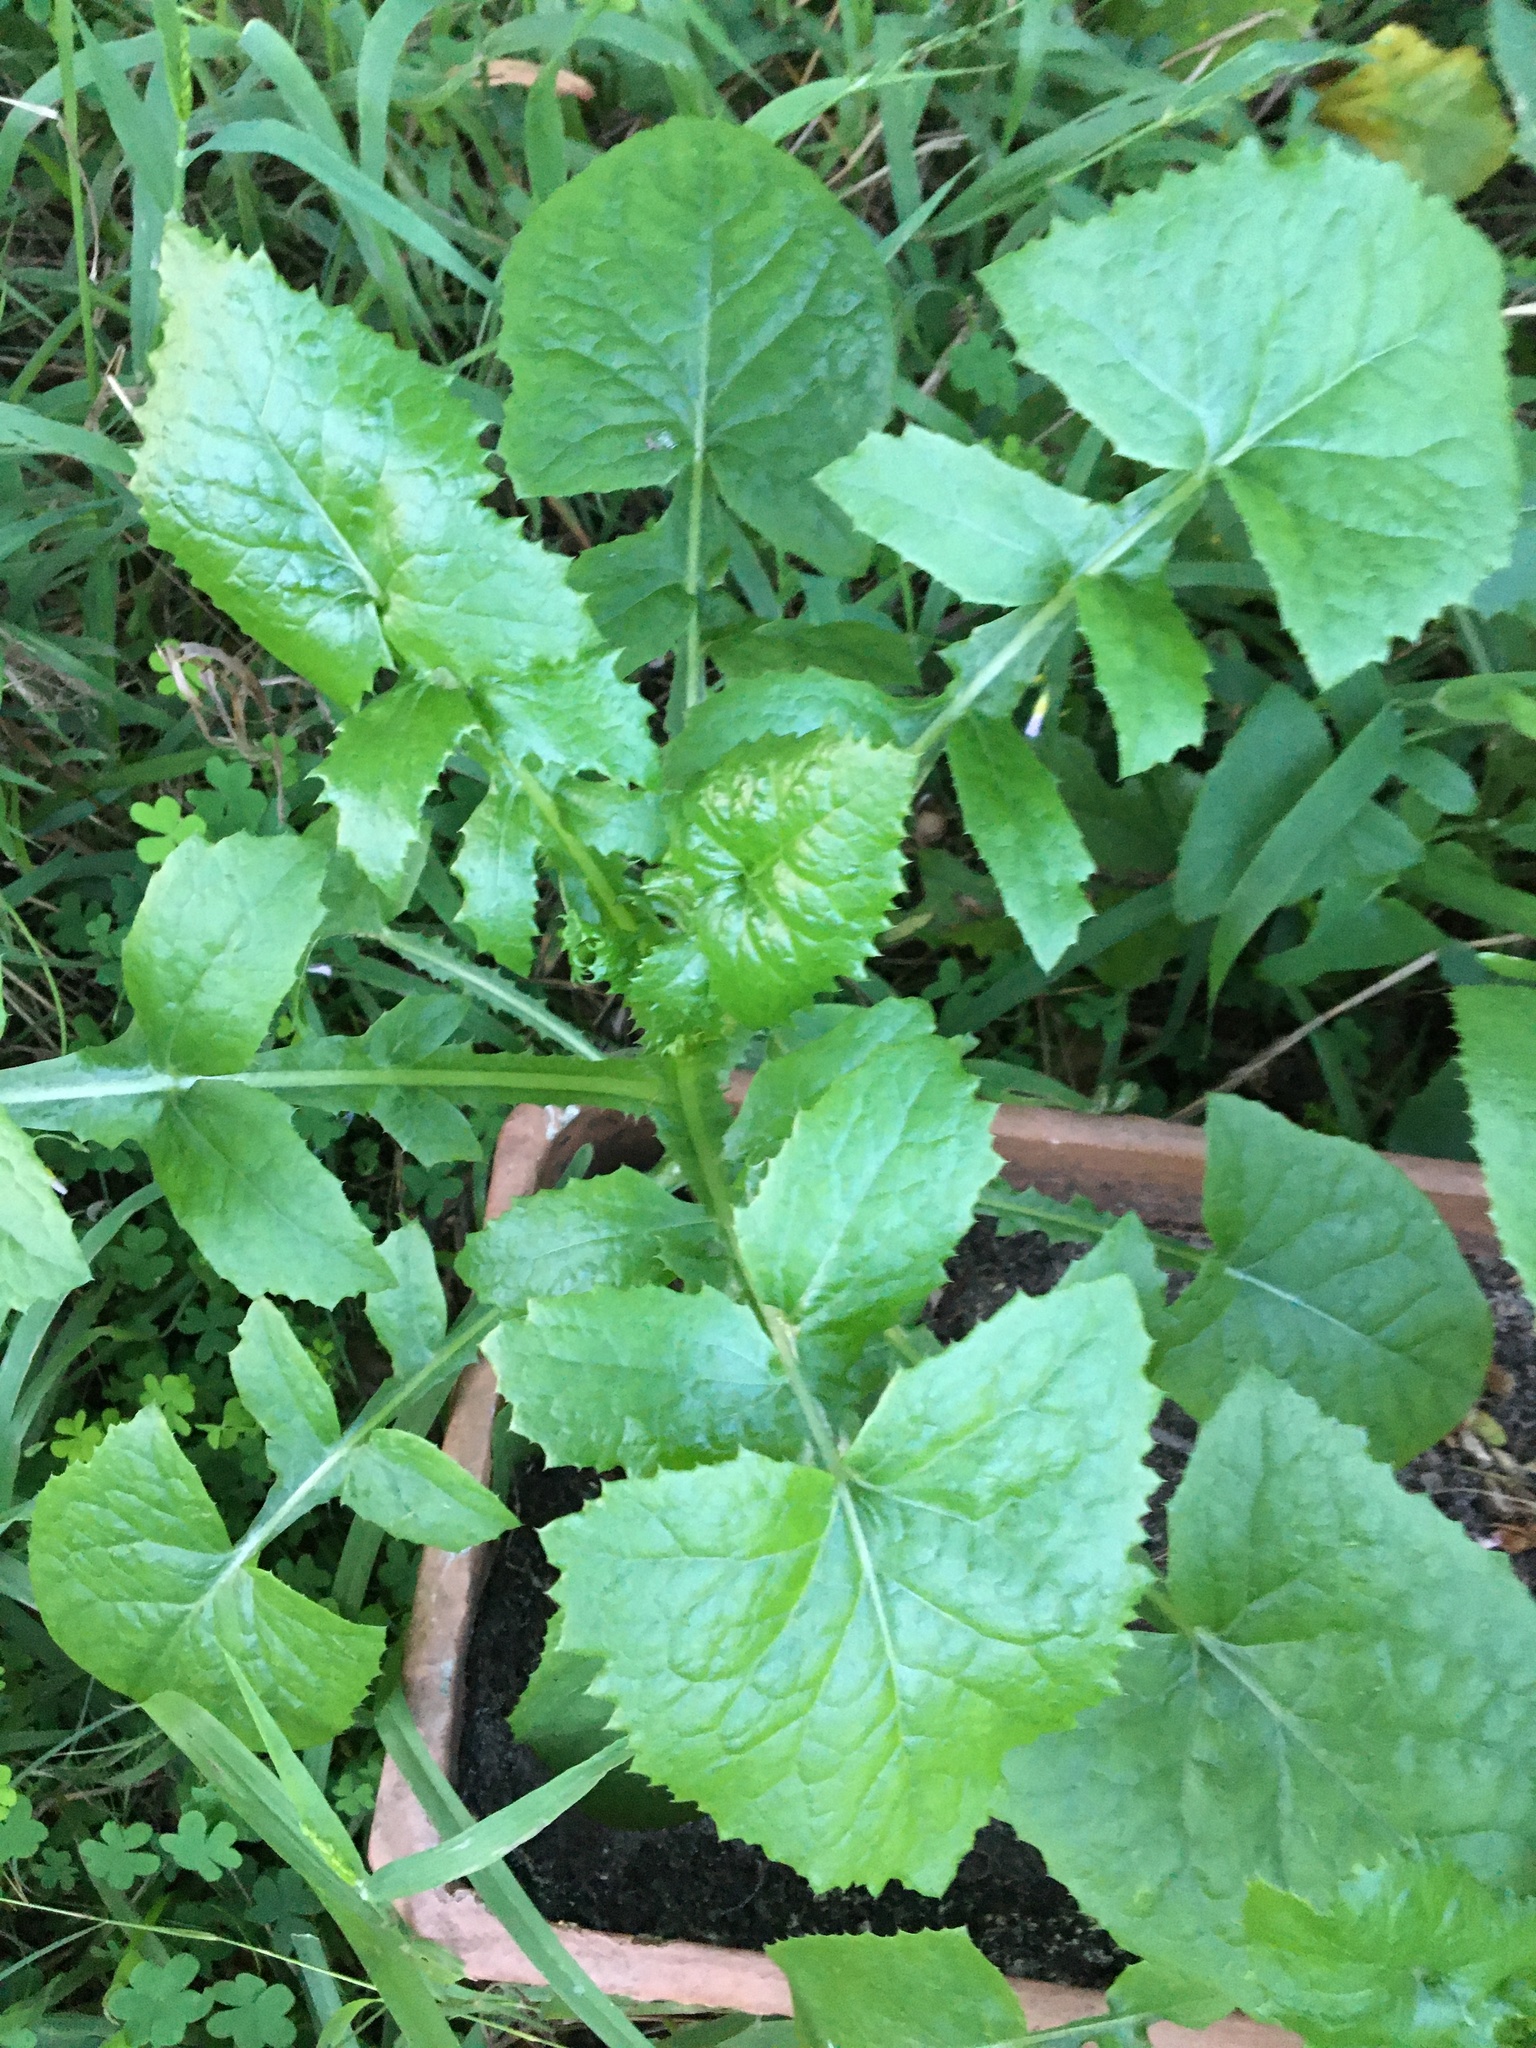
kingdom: Plantae
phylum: Tracheophyta
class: Magnoliopsida
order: Asterales
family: Asteraceae
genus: Sonchus
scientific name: Sonchus oleraceus
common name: Common sowthistle
